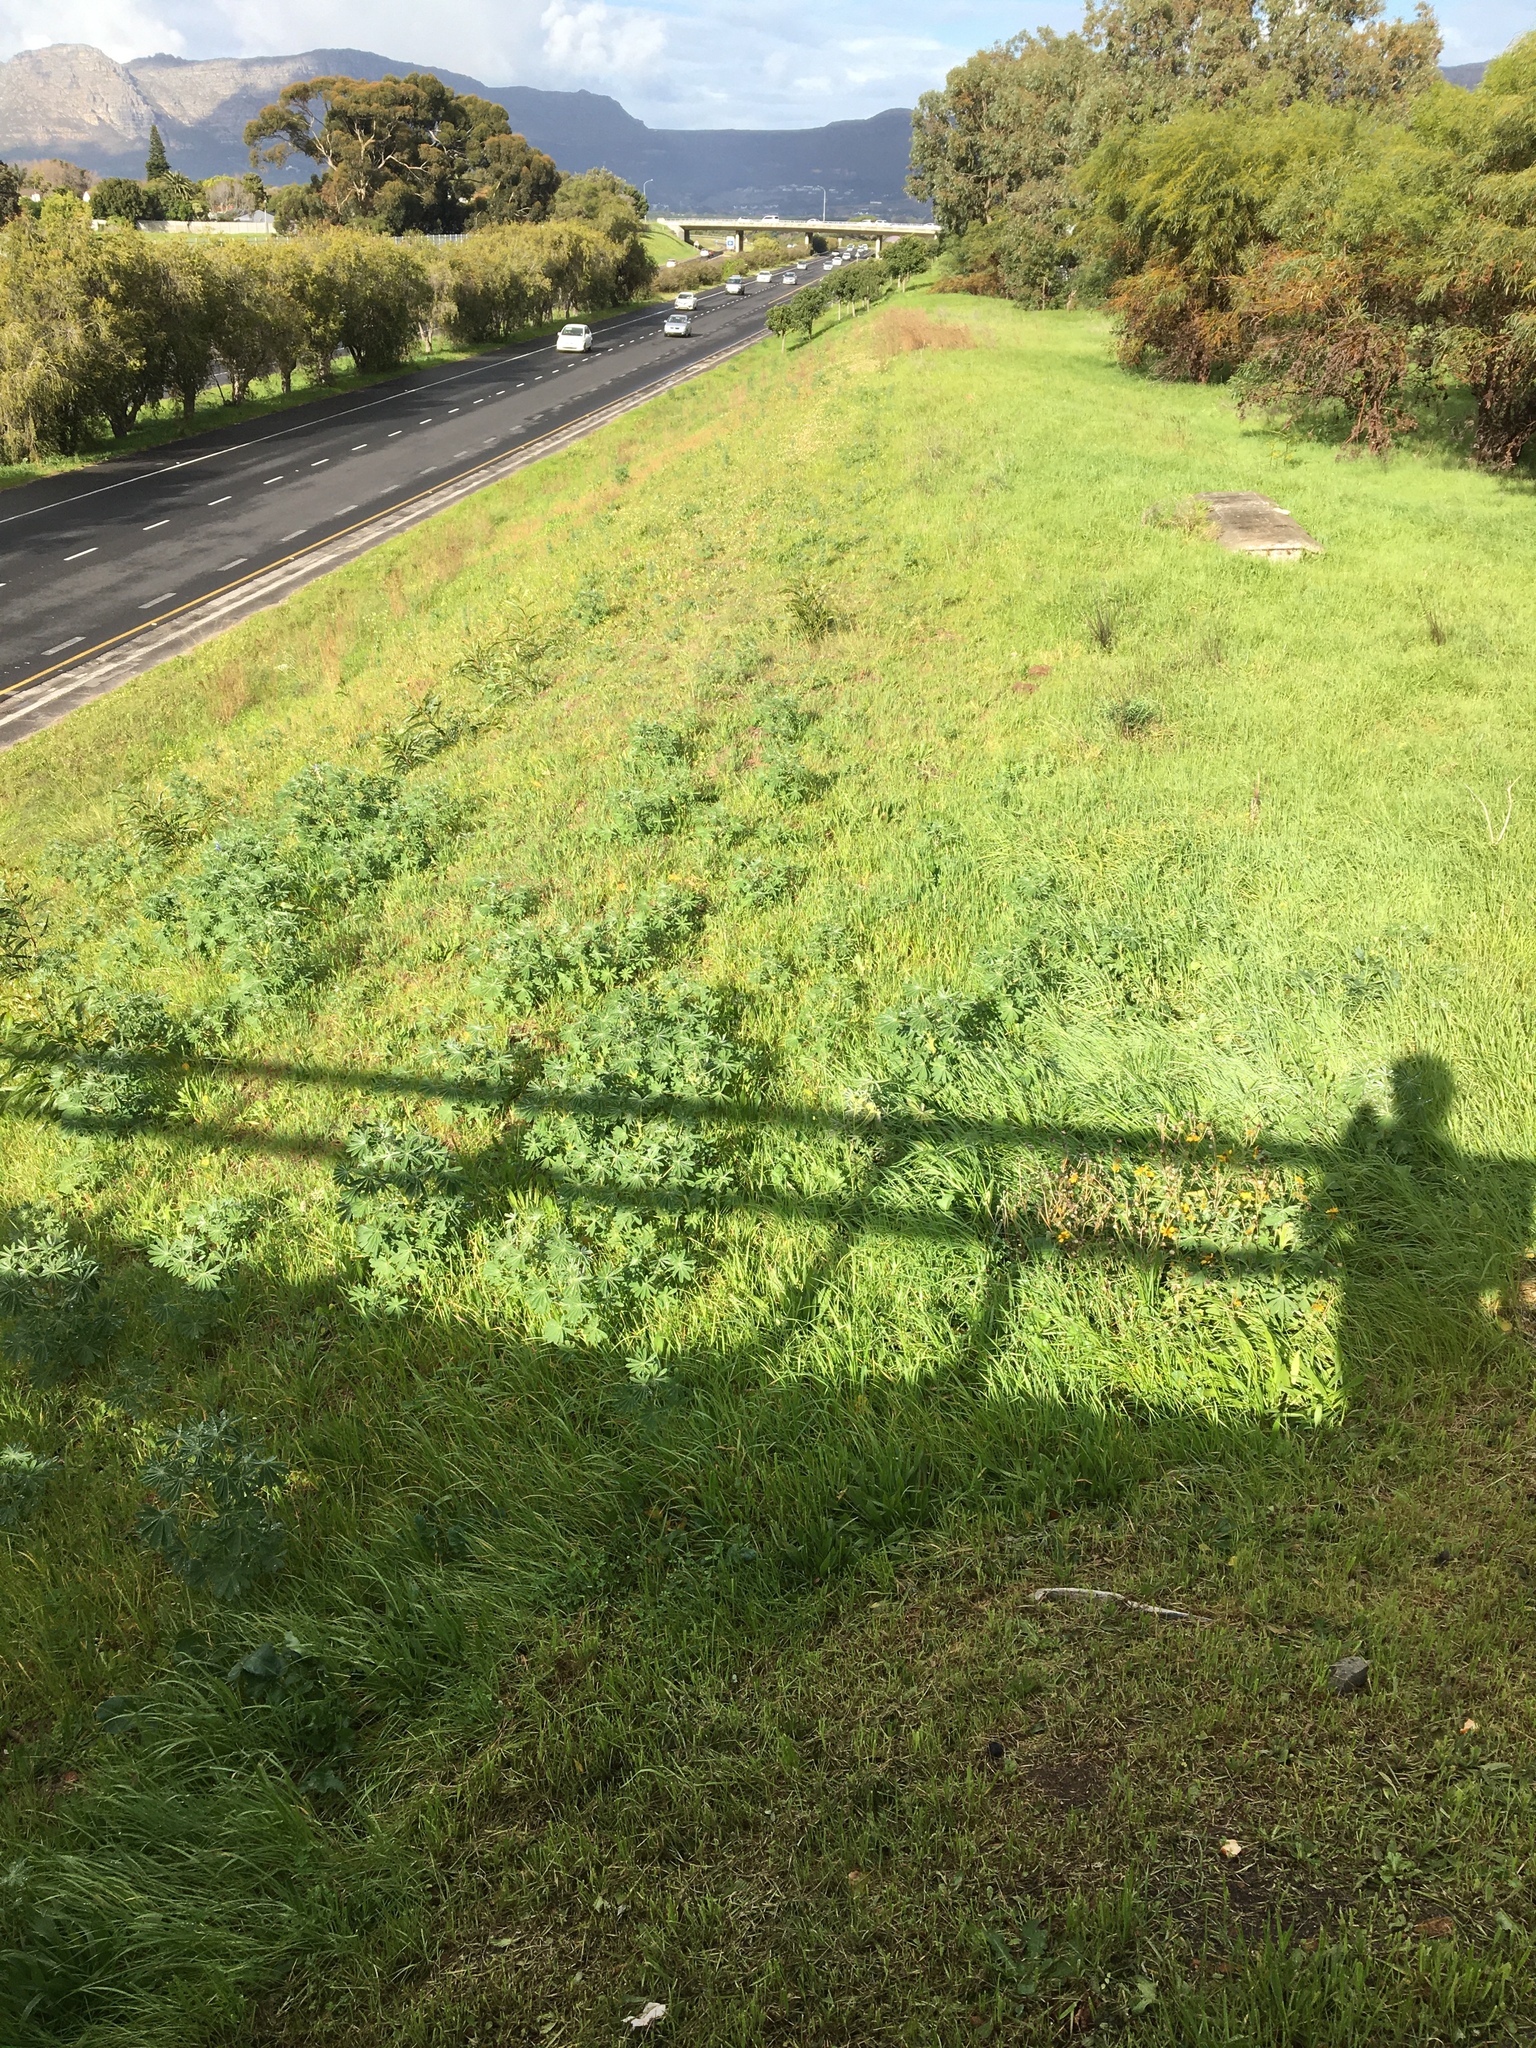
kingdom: Plantae
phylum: Tracheophyta
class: Magnoliopsida
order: Fabales
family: Fabaceae
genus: Lupinus
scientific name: Lupinus cosentinii
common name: Hairy blue lupin
